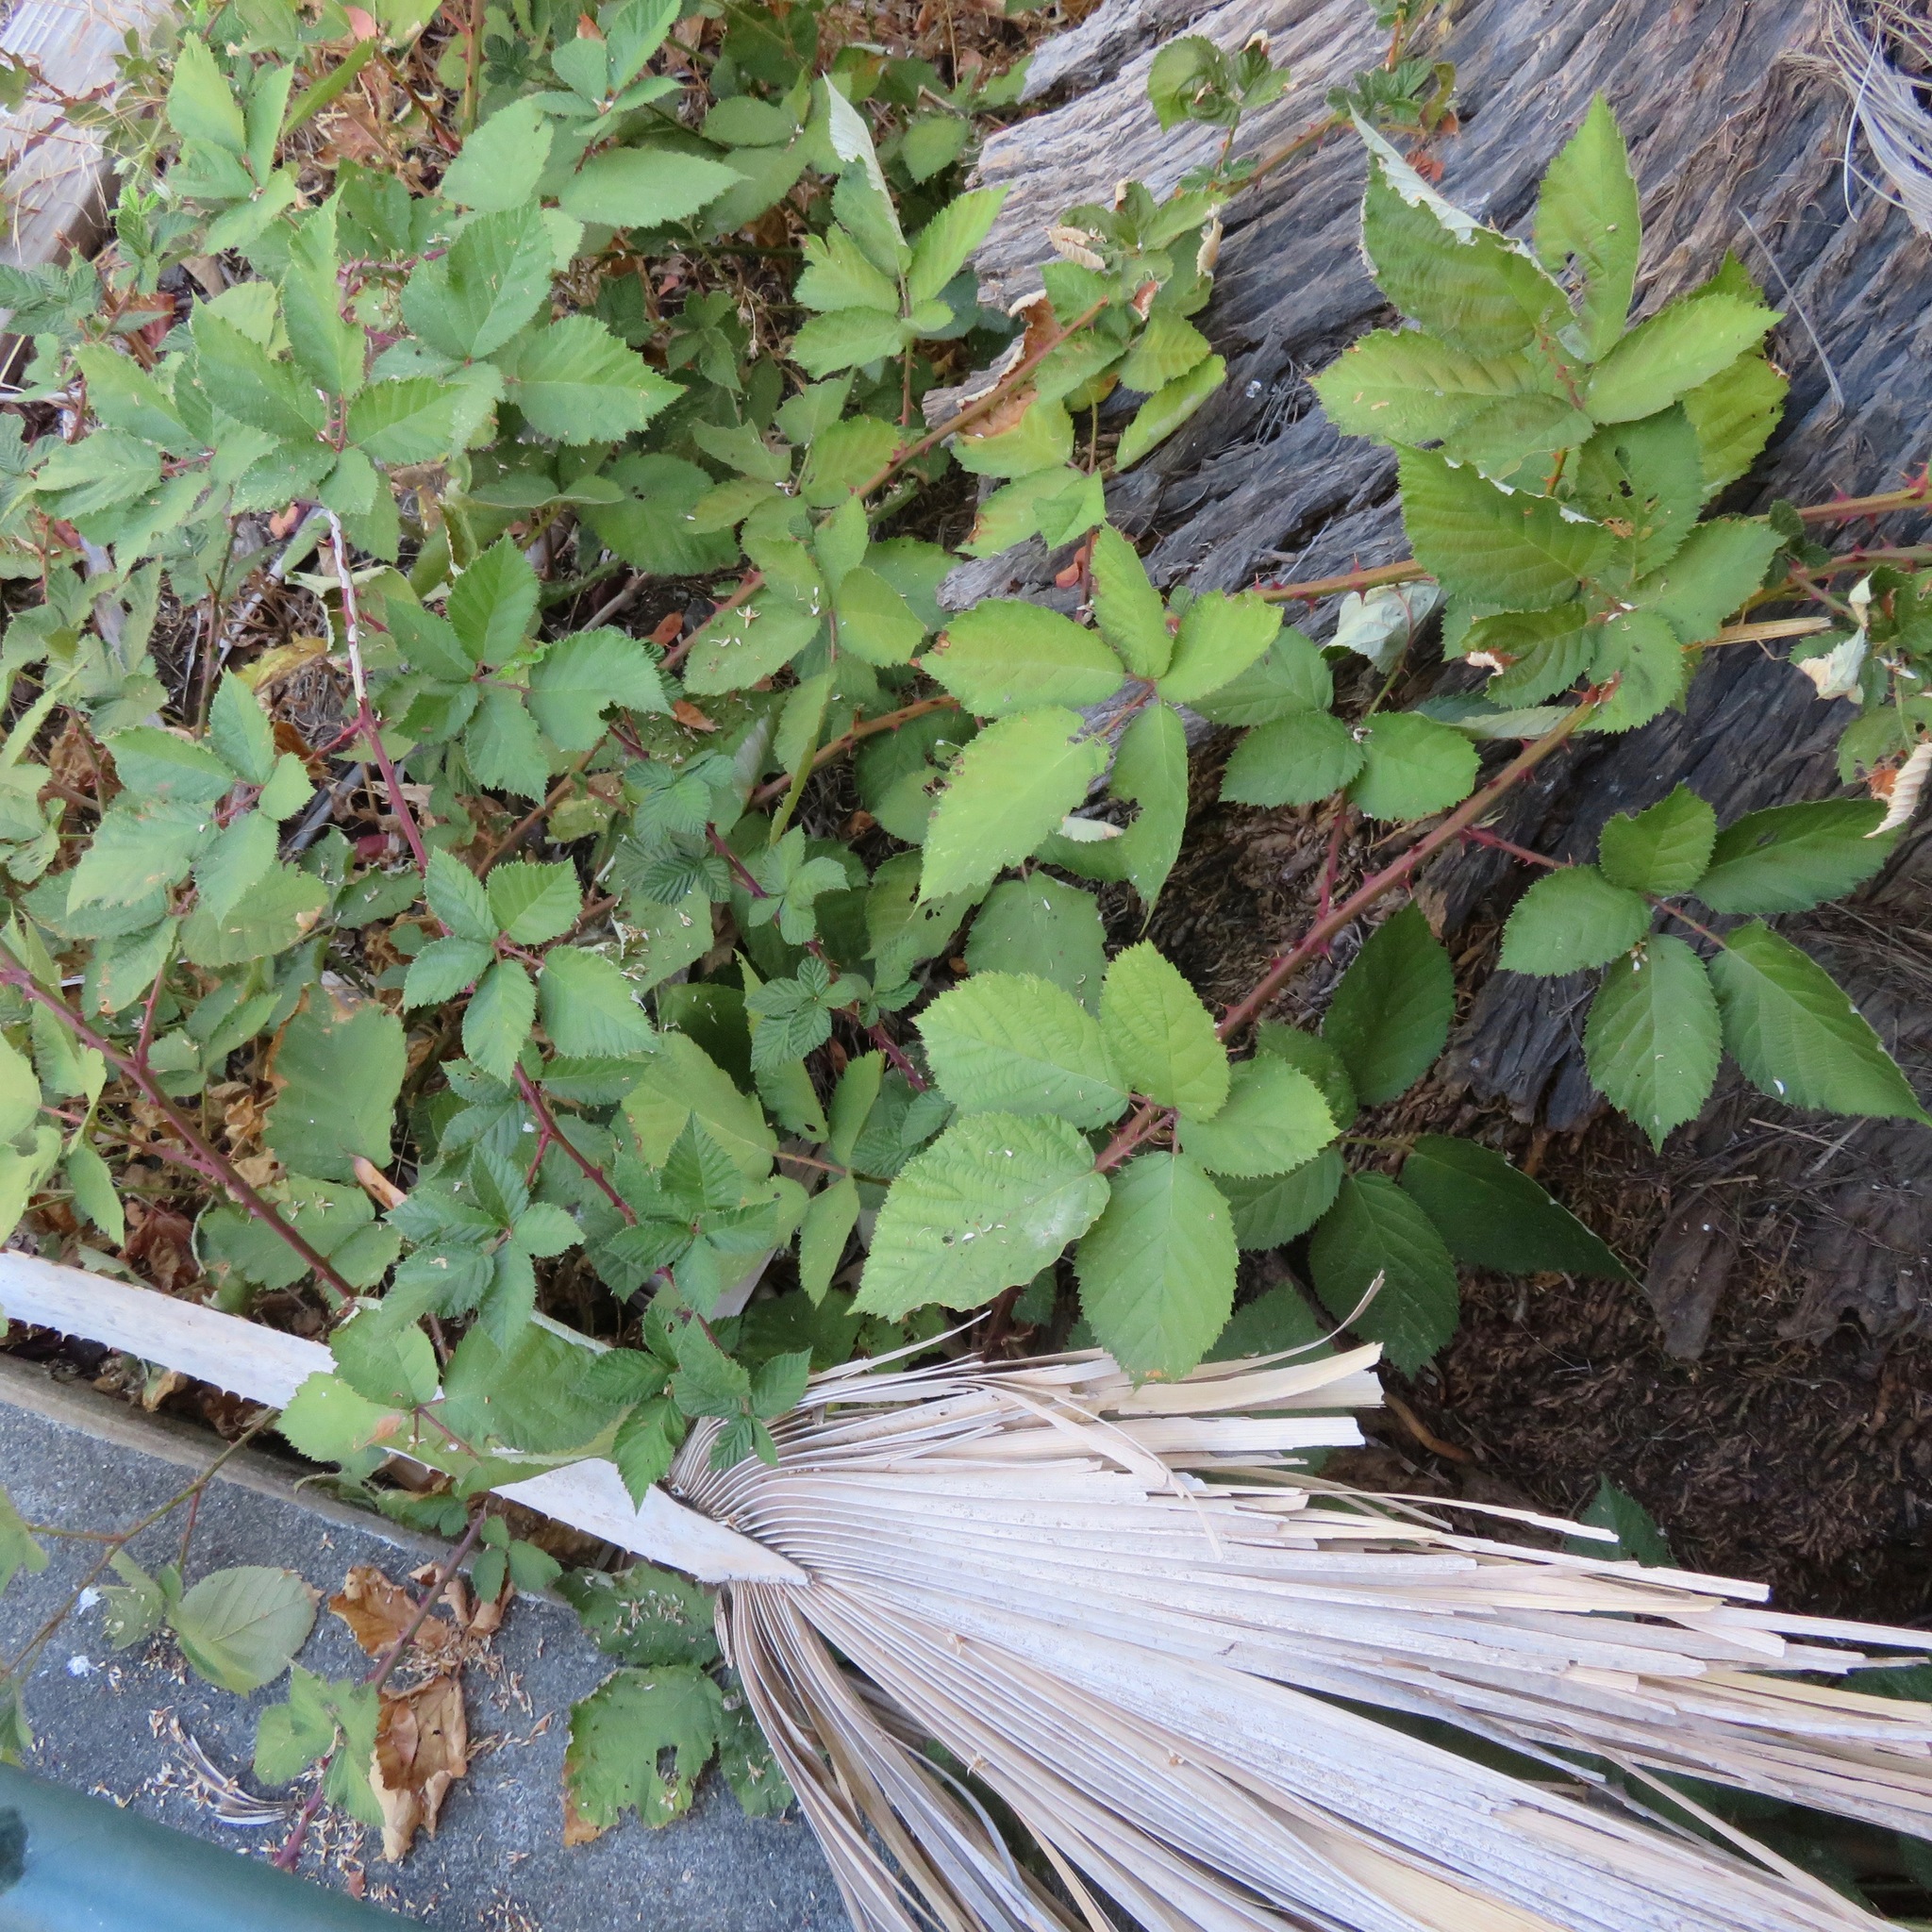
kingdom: Plantae
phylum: Tracheophyta
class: Magnoliopsida
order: Rosales
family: Rosaceae
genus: Rubus
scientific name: Rubus armeniacus
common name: Himalayan blackberry
